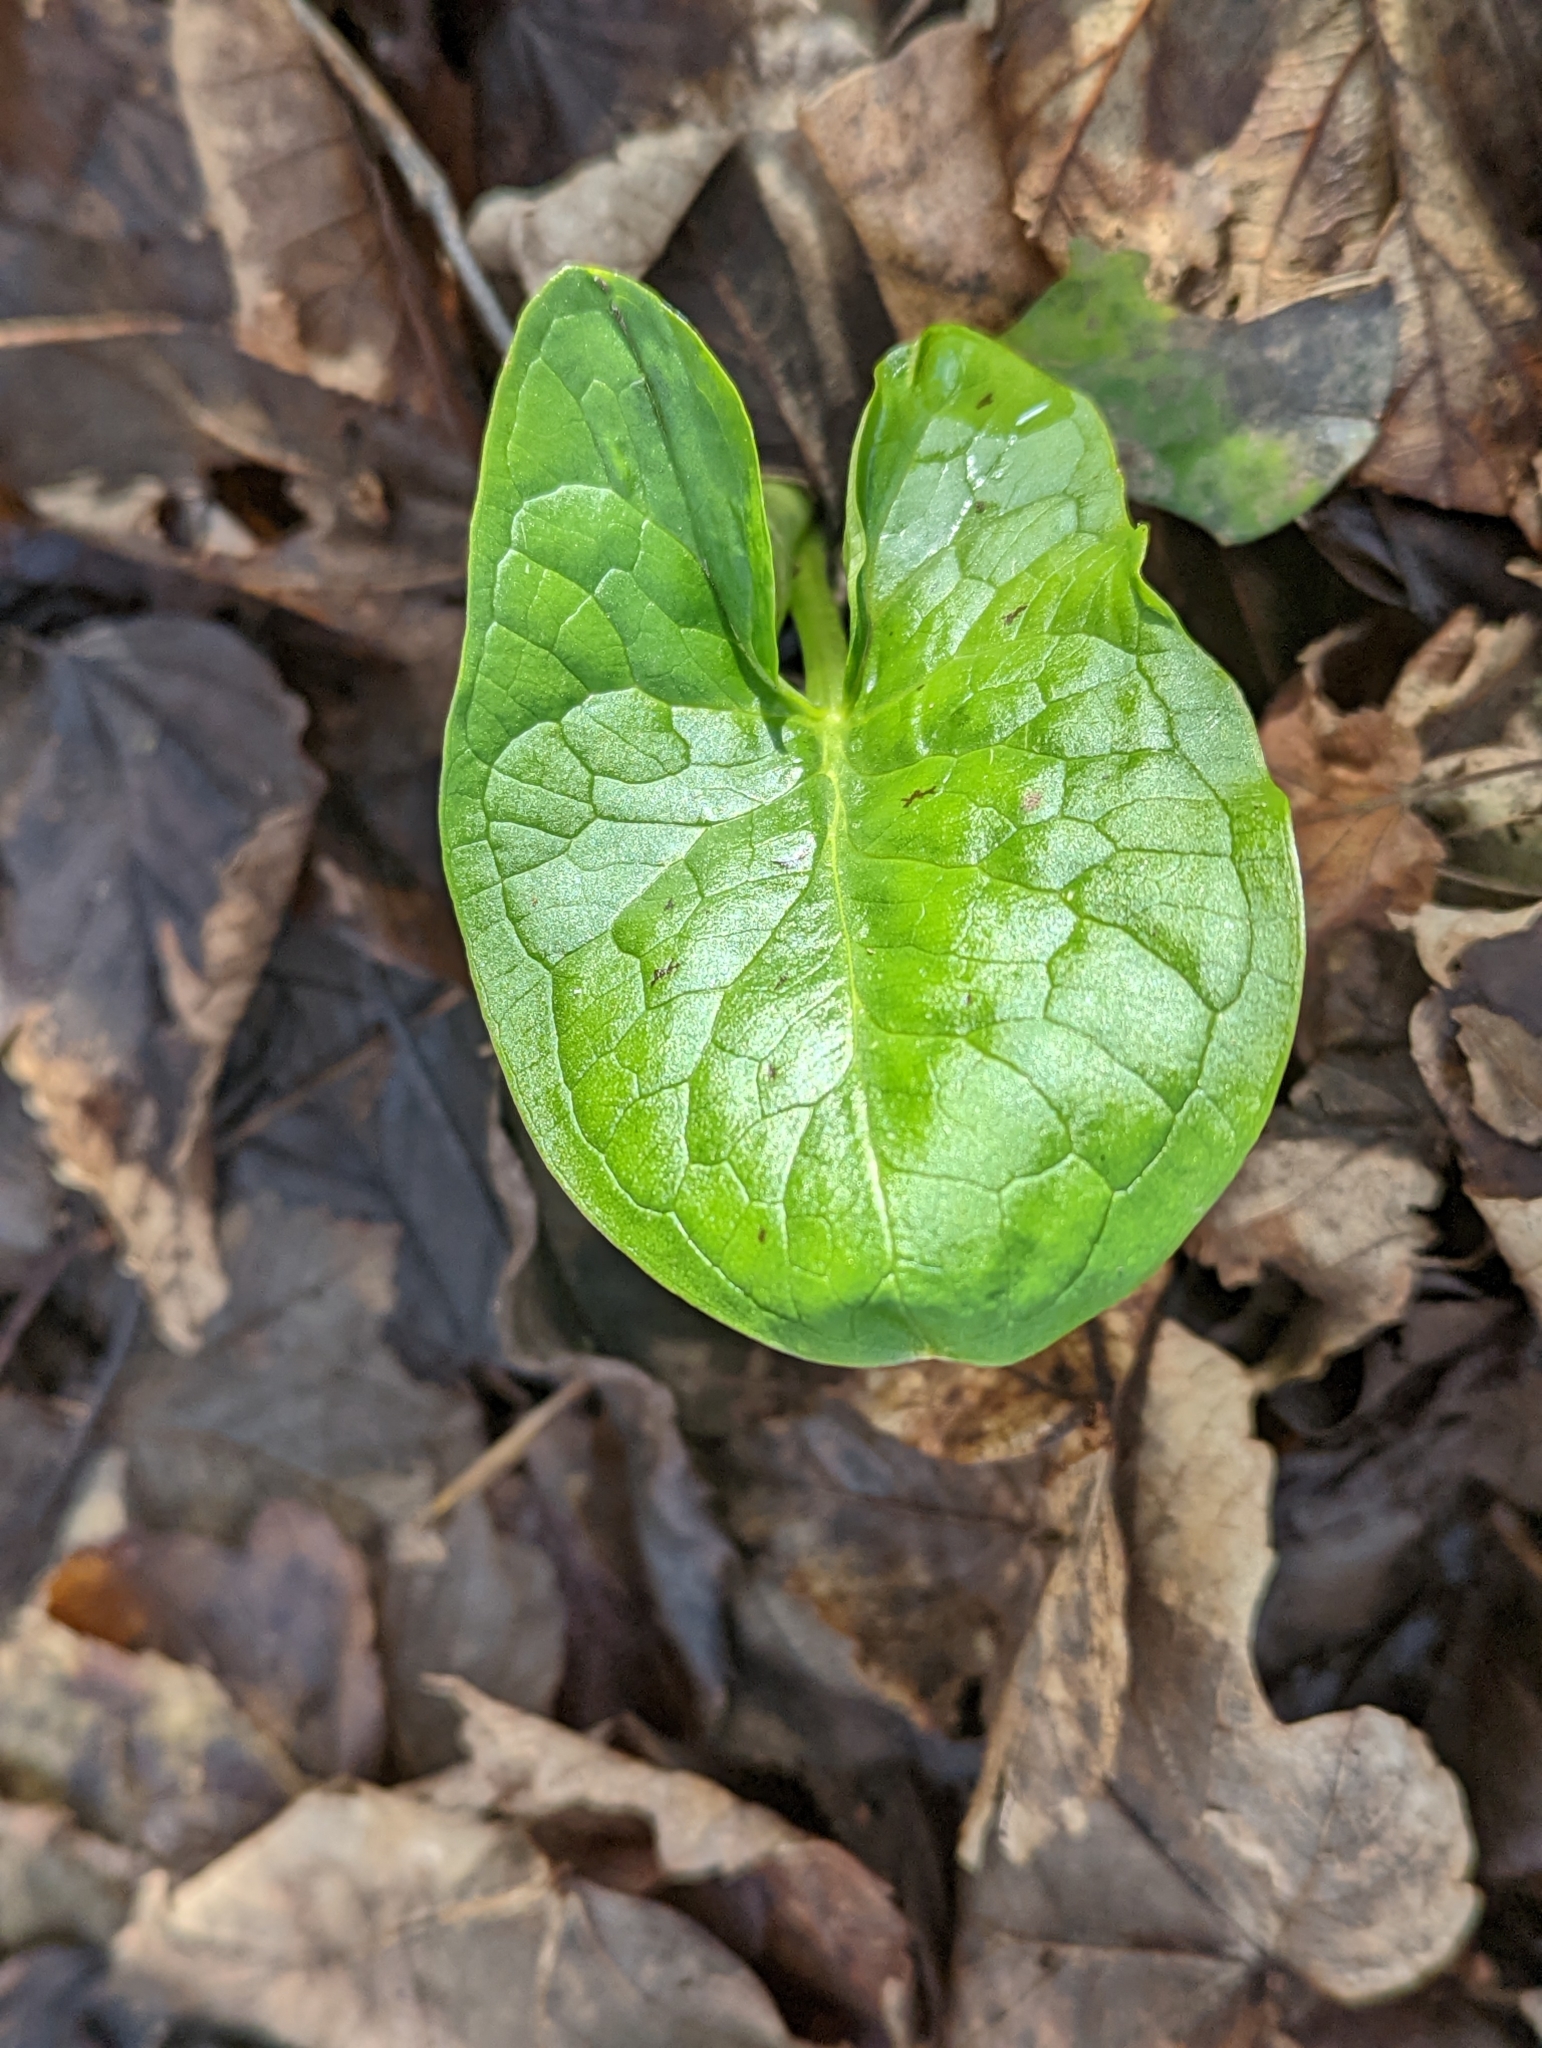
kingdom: Plantae
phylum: Tracheophyta
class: Liliopsida
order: Alismatales
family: Araceae
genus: Arum
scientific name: Arum maculatum
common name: Lords-and-ladies
